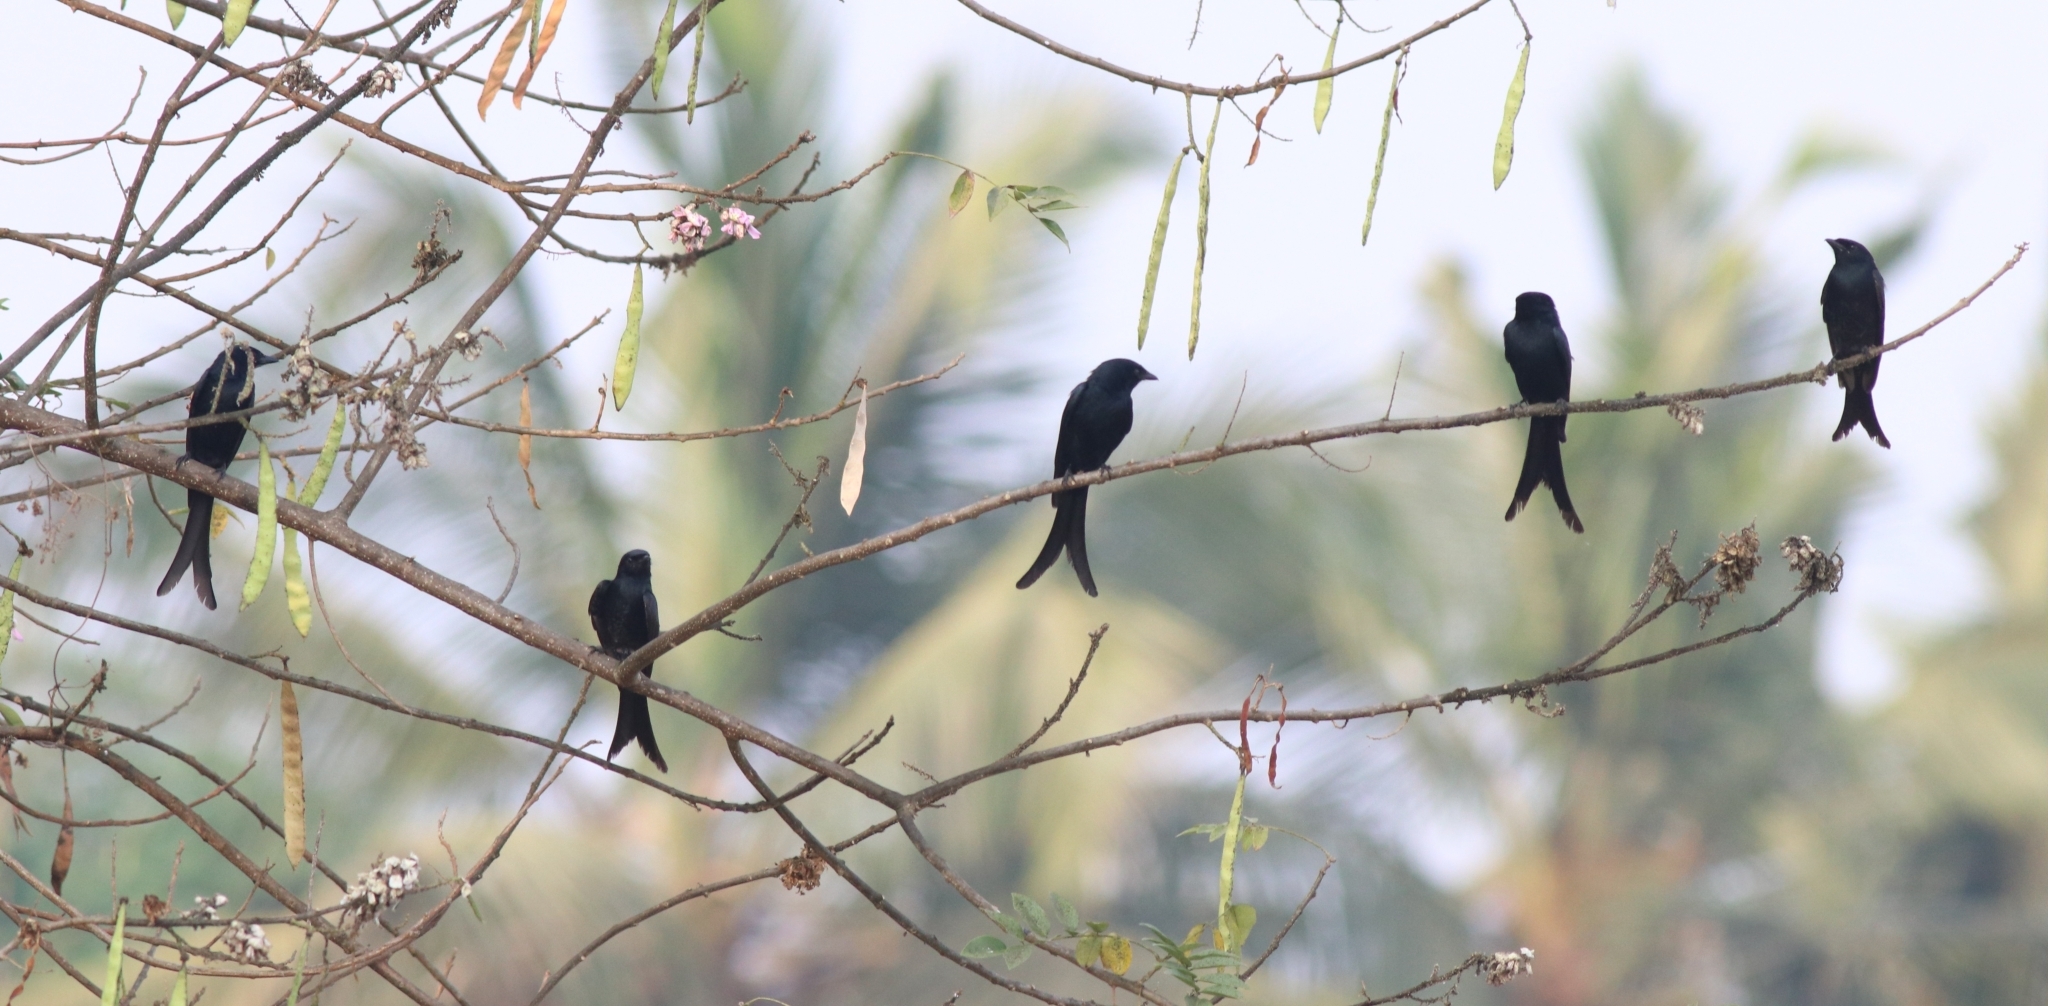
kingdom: Animalia
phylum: Chordata
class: Aves
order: Passeriformes
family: Dicruridae
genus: Dicrurus
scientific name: Dicrurus macrocercus
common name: Black drongo
